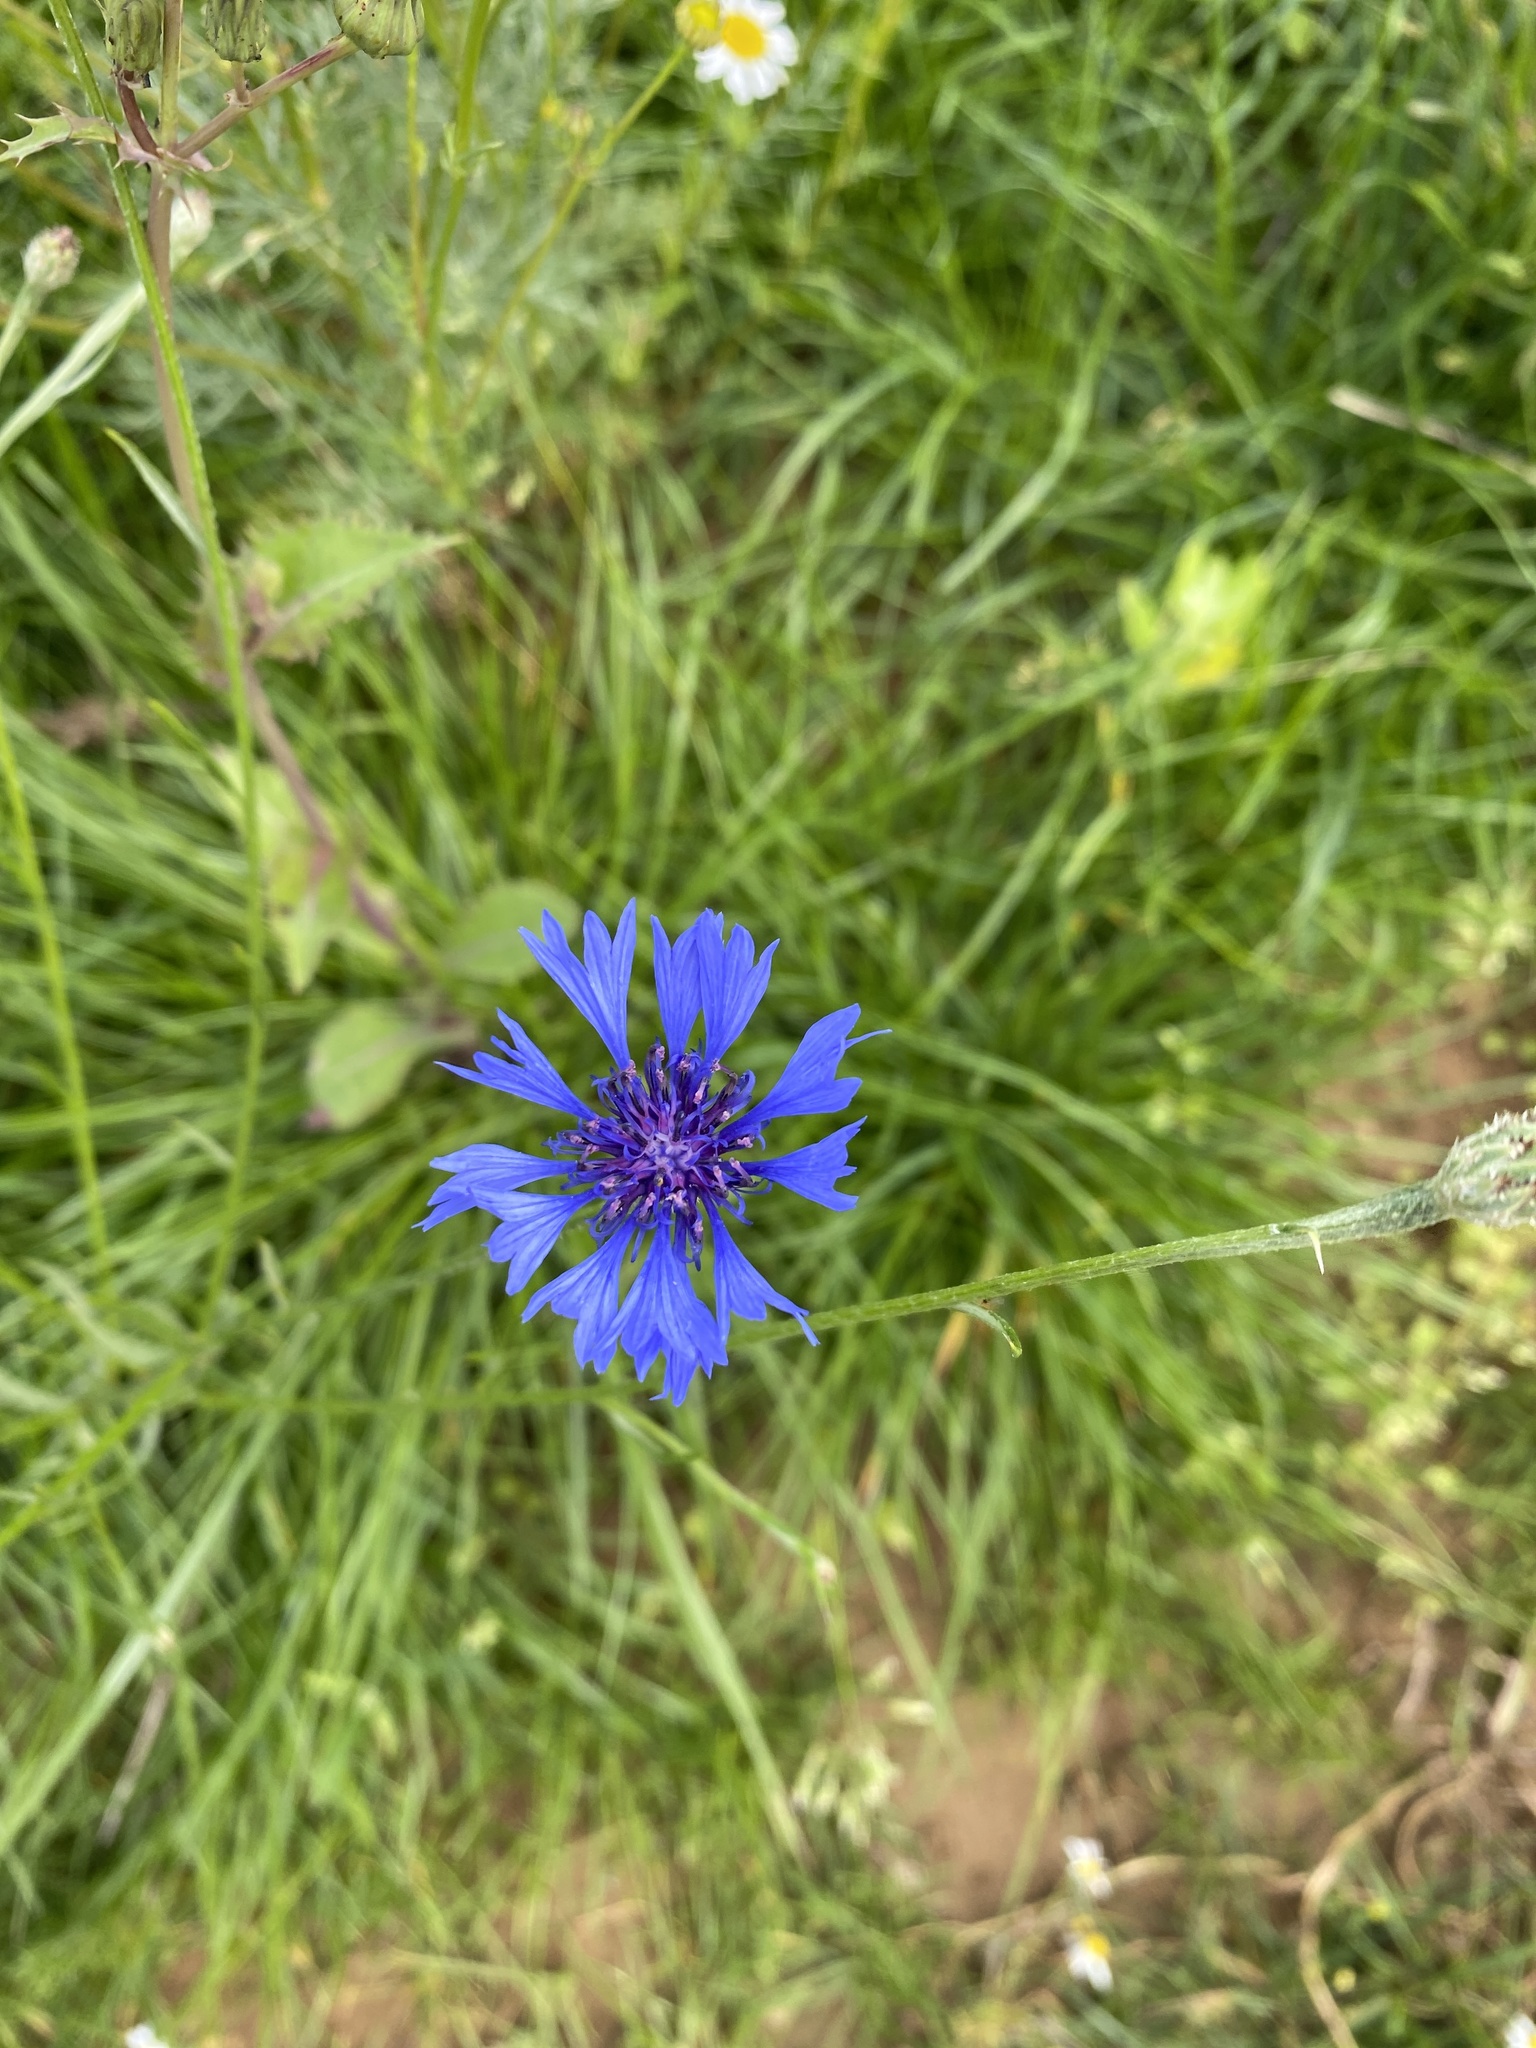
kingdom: Plantae
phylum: Tracheophyta
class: Magnoliopsida
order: Asterales
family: Asteraceae
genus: Centaurea
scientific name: Centaurea cyanus
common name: Cornflower
